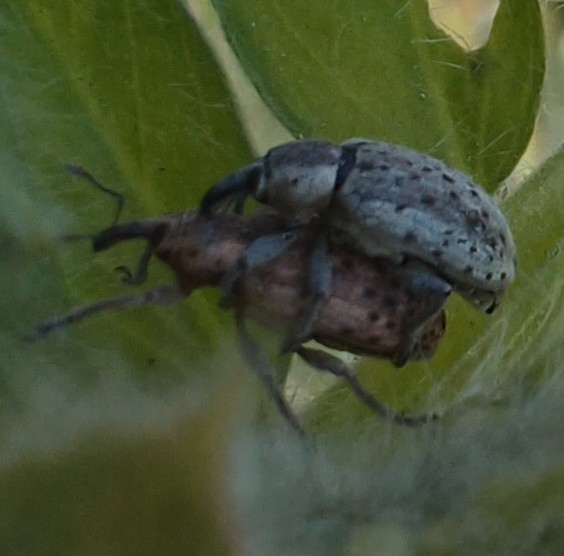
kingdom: Animalia
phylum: Arthropoda
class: Insecta
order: Coleoptera
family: Curculionidae
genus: Hypera
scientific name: Hypera viciae
